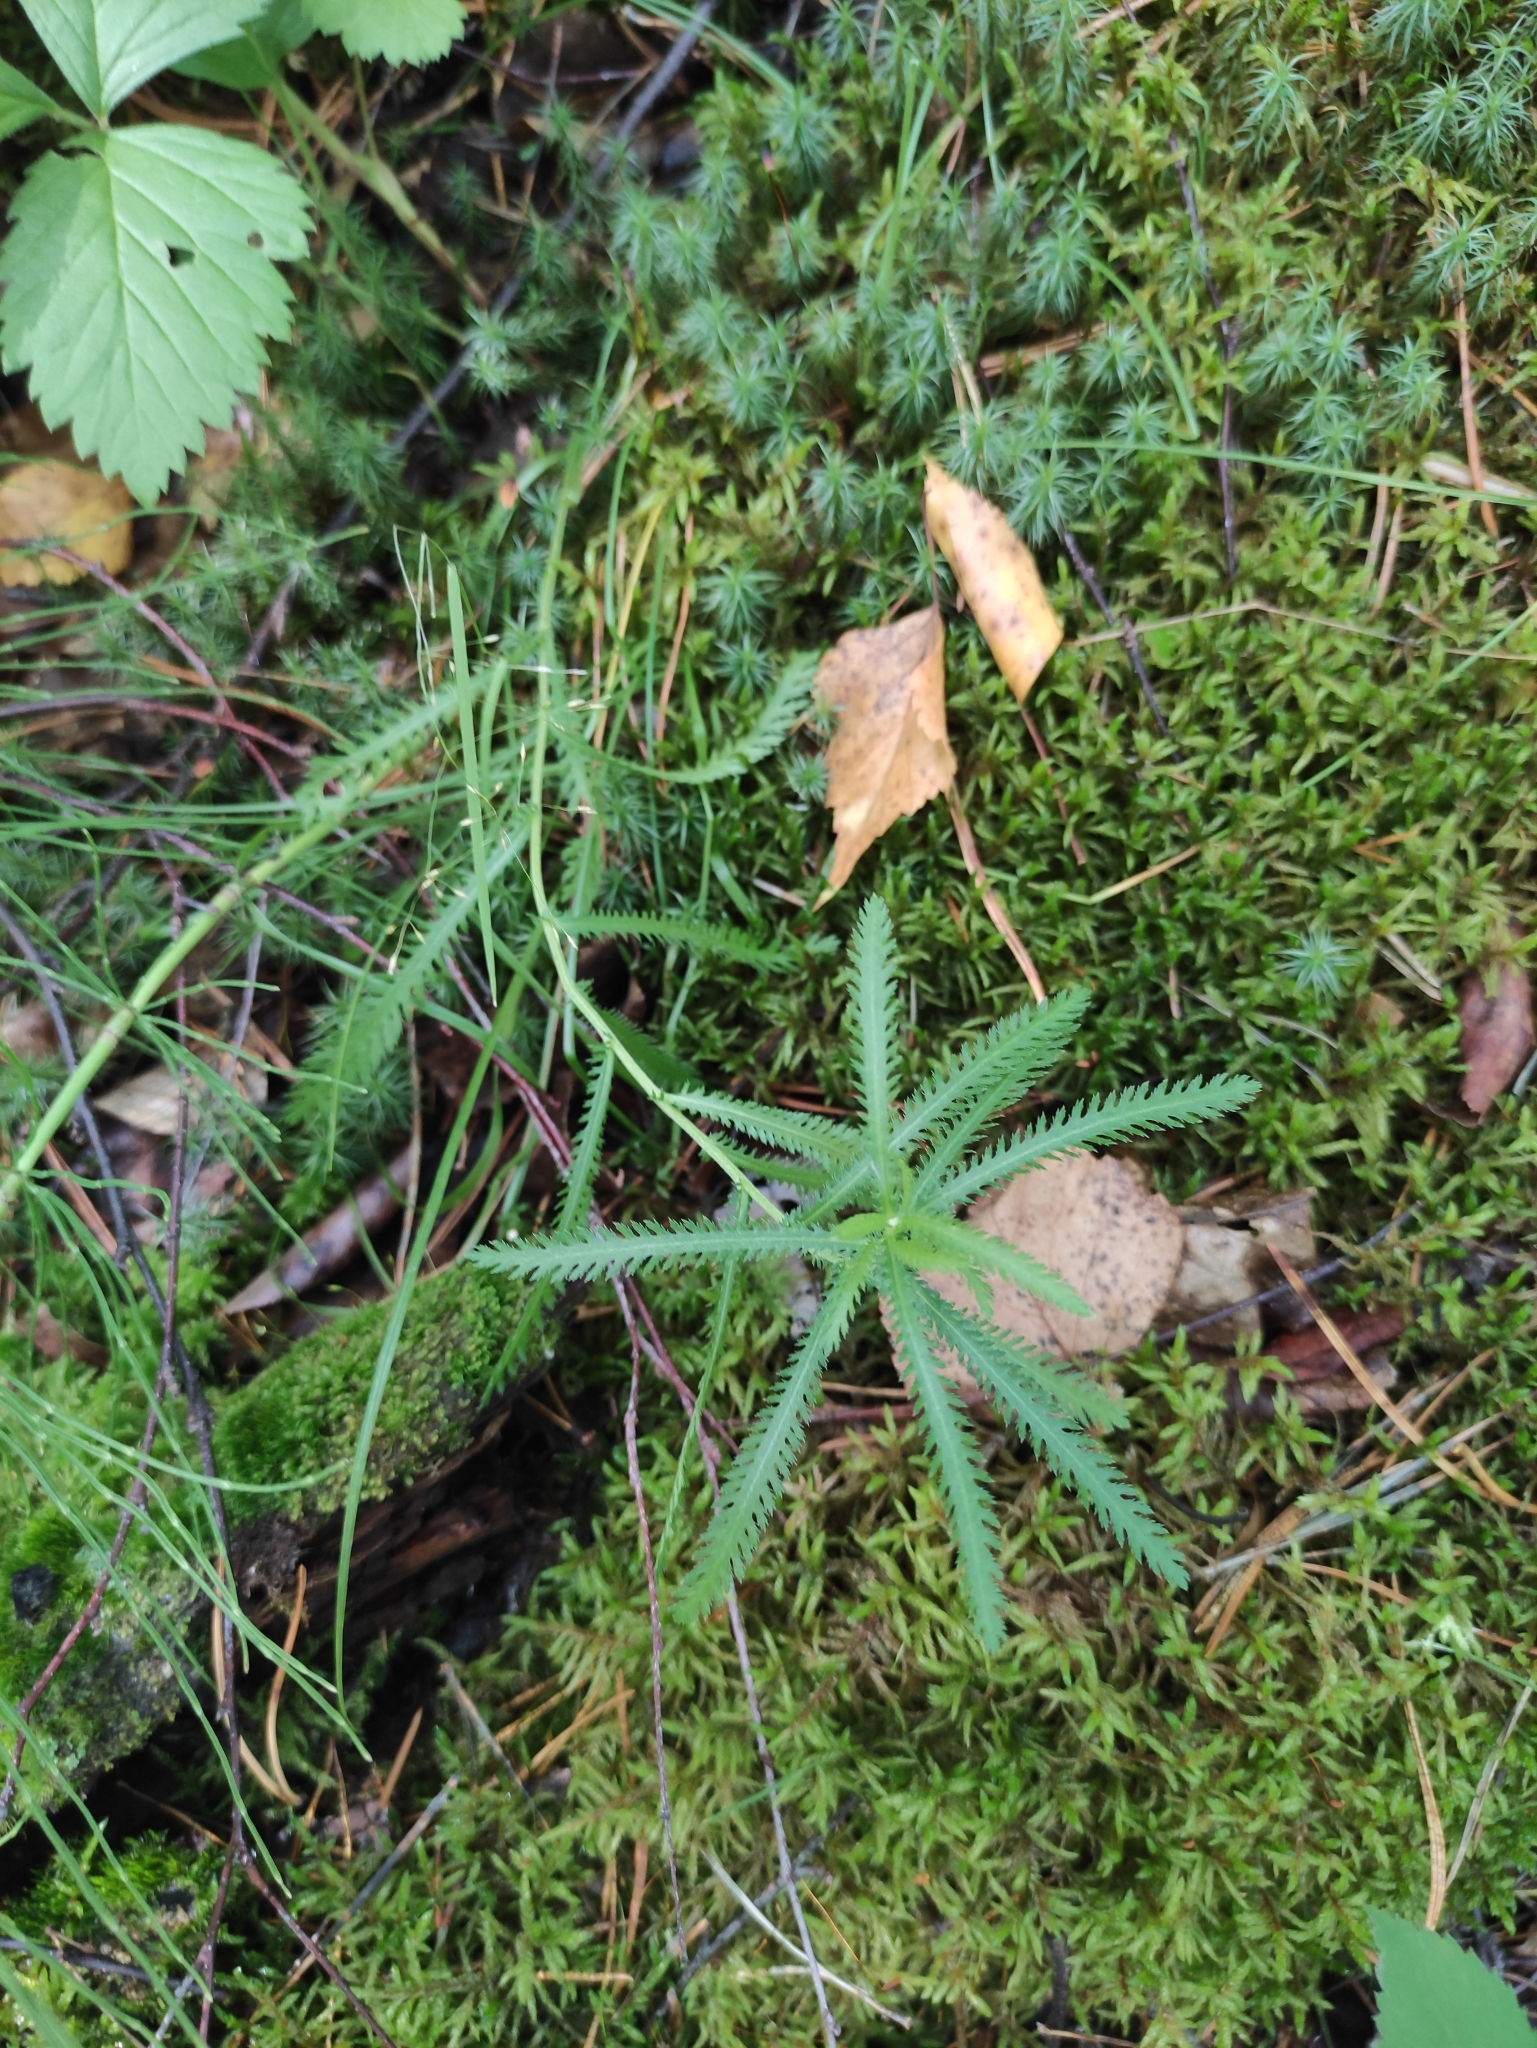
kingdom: Plantae
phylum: Tracheophyta
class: Magnoliopsida
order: Asterales
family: Asteraceae
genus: Achillea
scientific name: Achillea alpina
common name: Siberian yarrow
